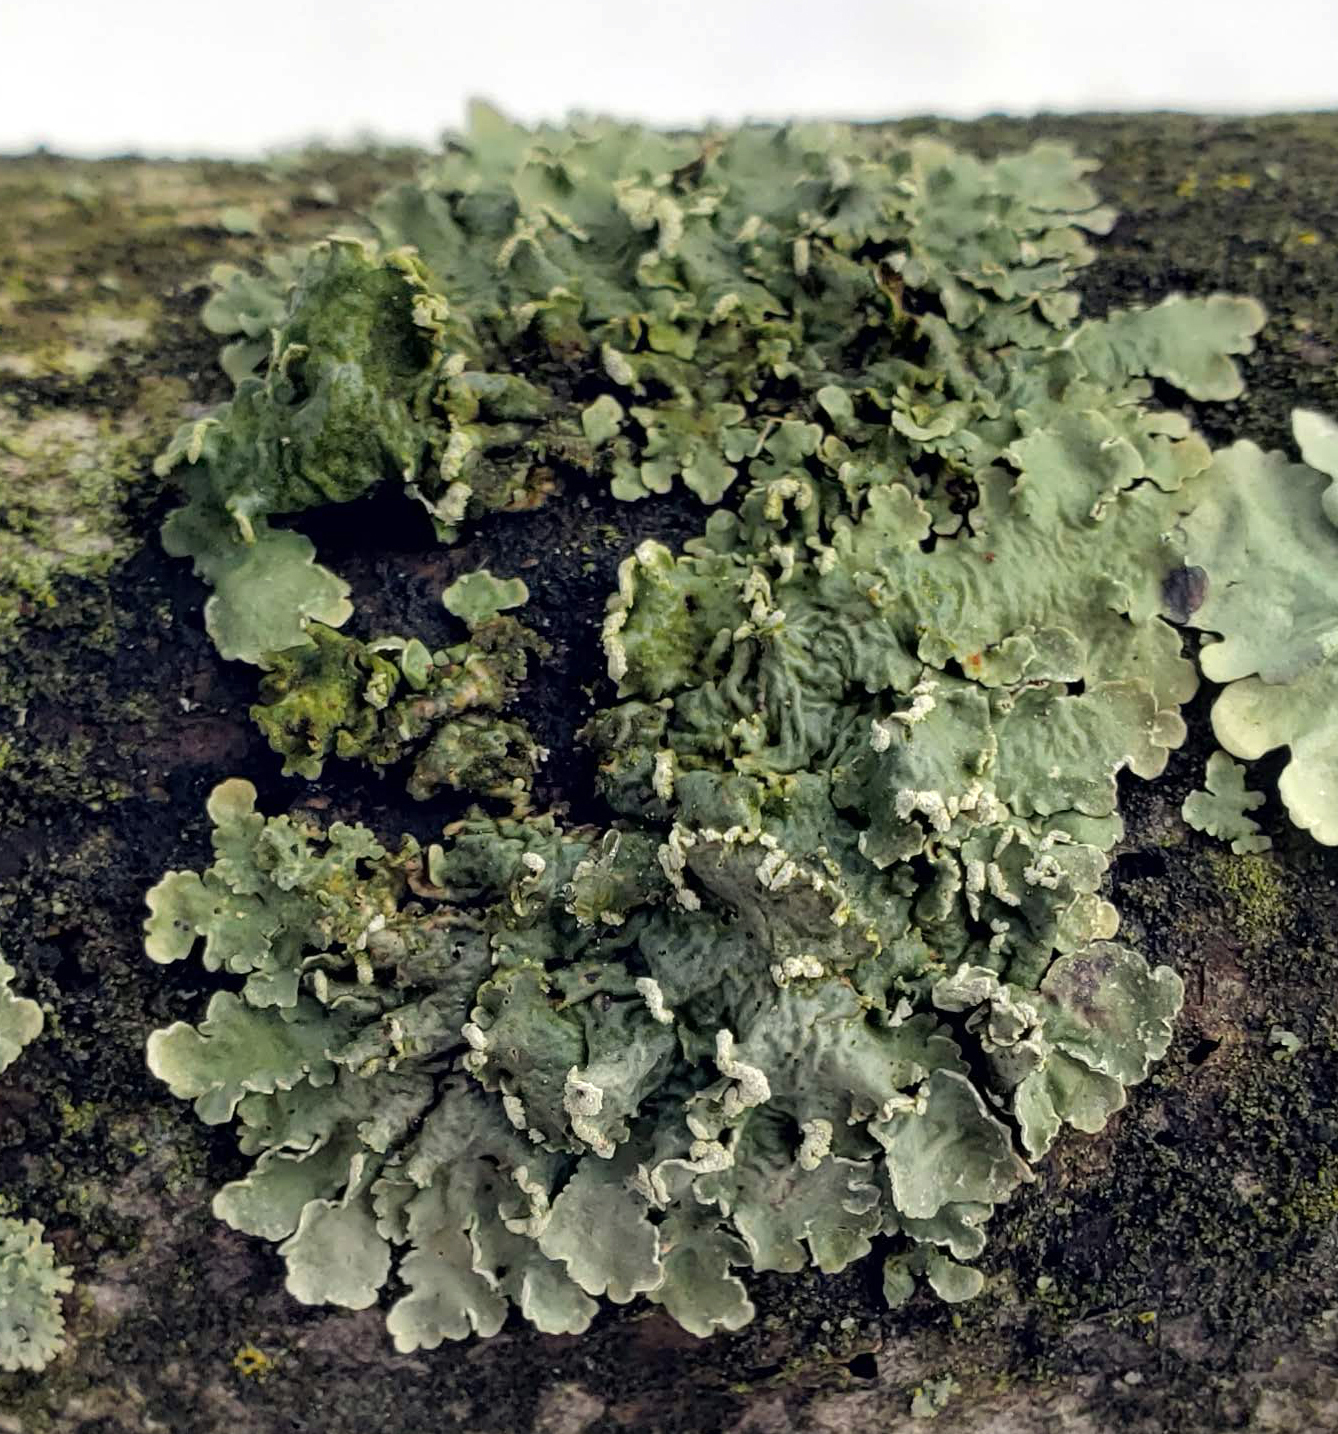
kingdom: Fungi
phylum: Ascomycota
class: Lecanoromycetes
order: Lecanorales
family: Parmeliaceae
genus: Flavopunctelia
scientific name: Flavopunctelia soredica
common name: Powder-edged speckled greenshield
